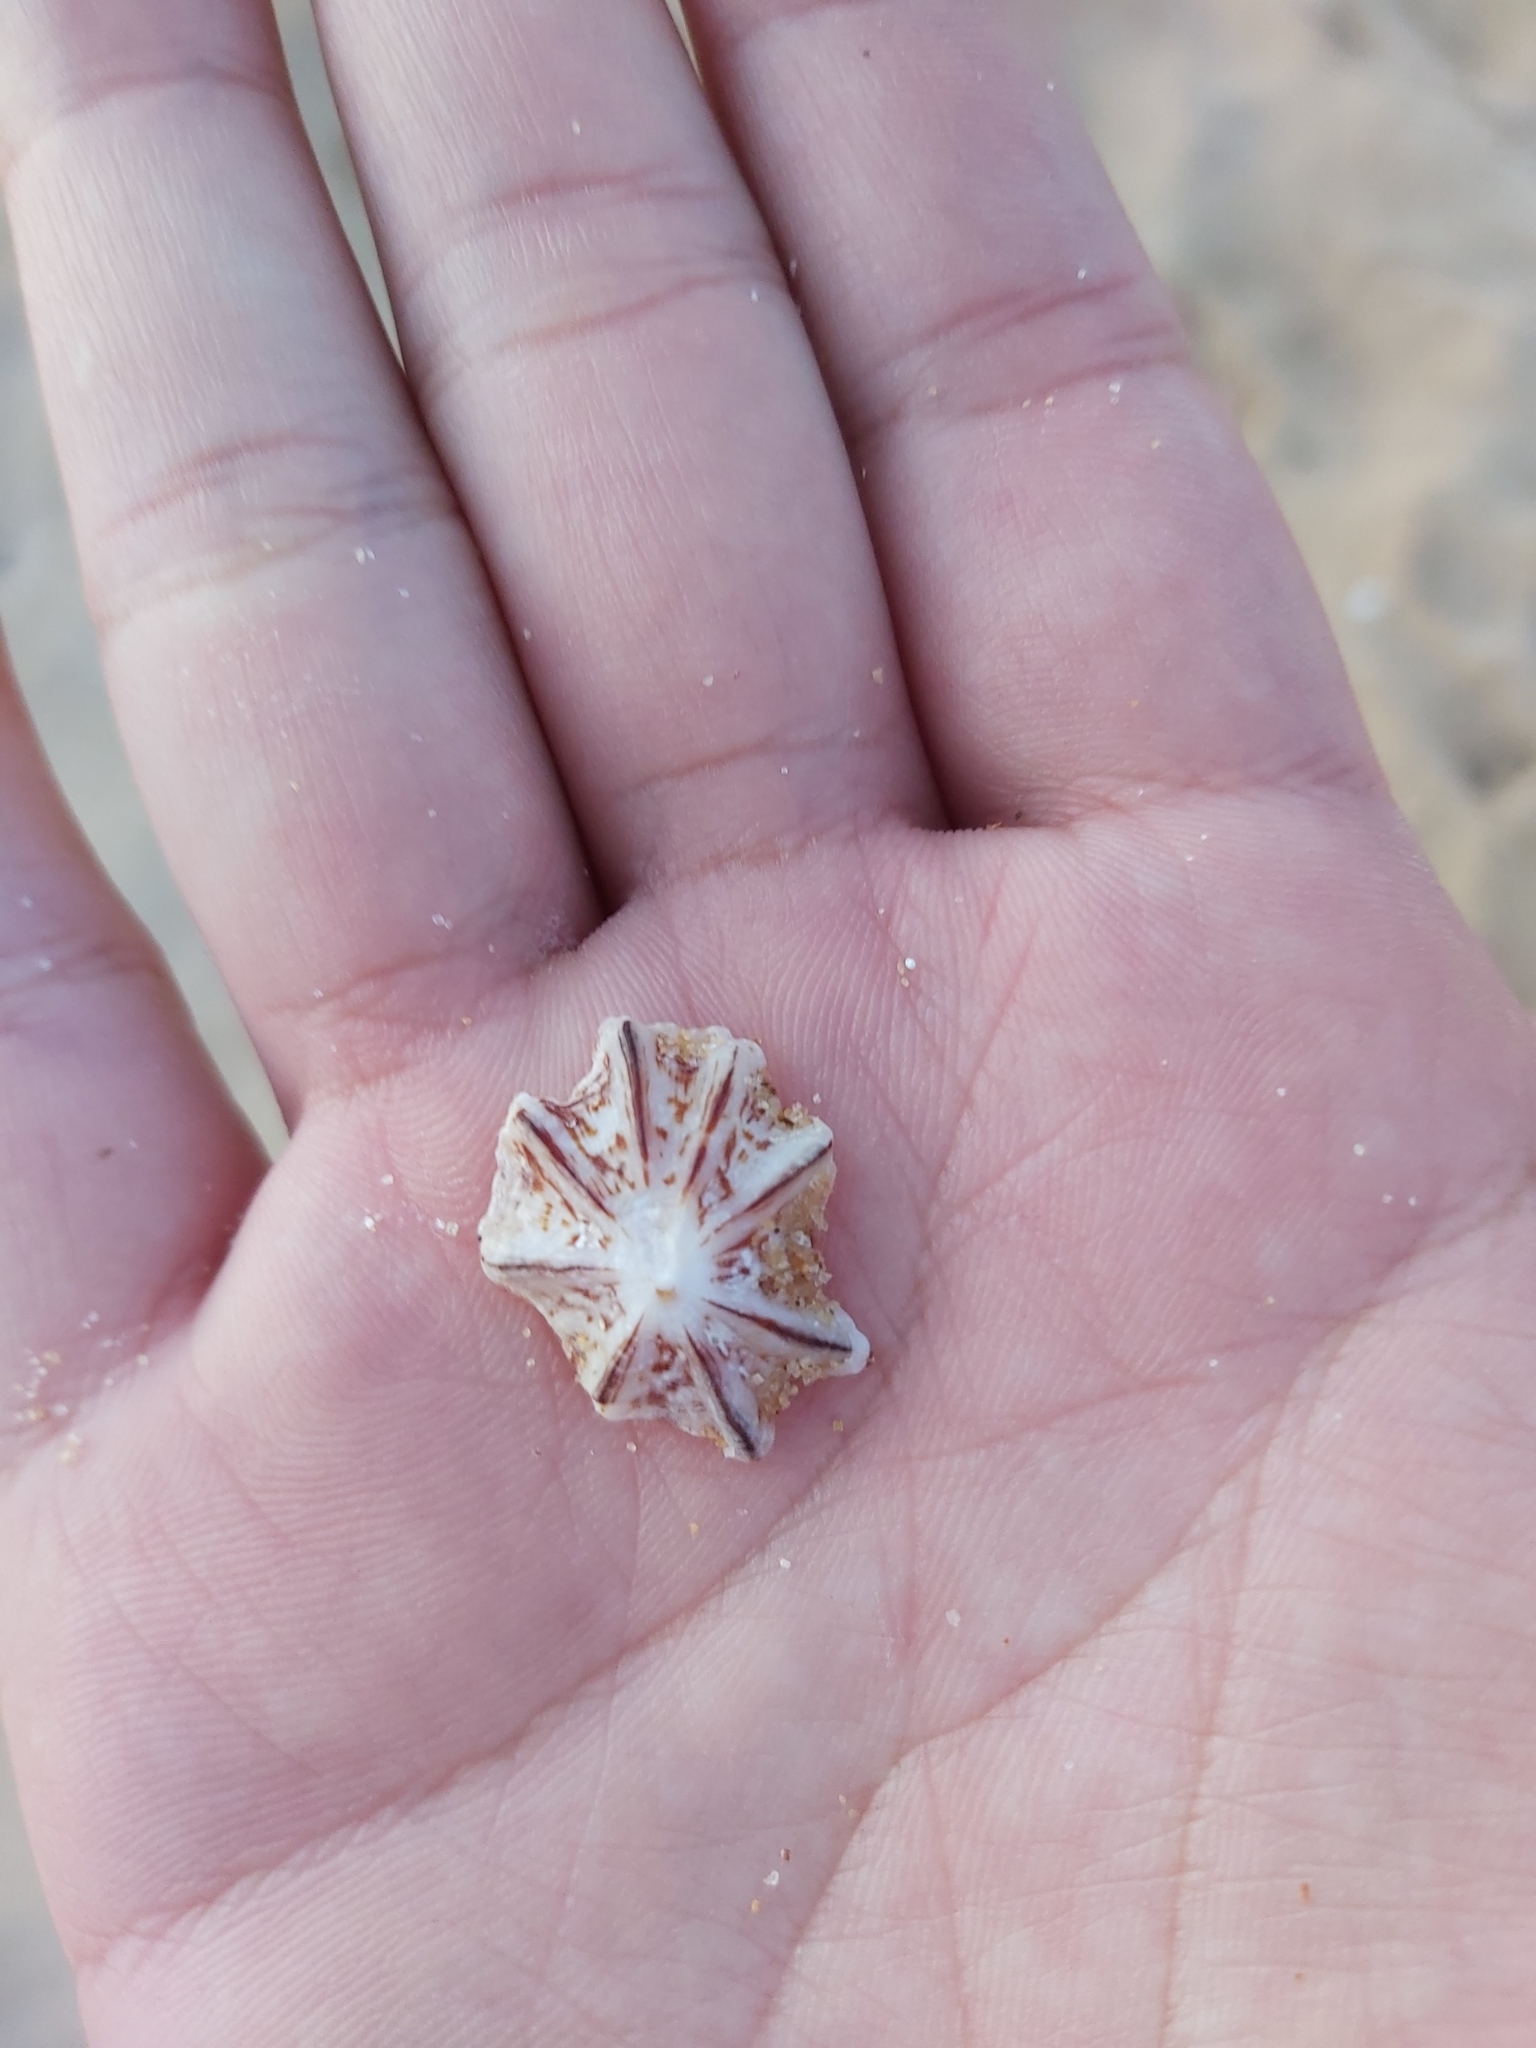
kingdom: Animalia
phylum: Mollusca
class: Gastropoda
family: Patellidae
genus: Scutellastra
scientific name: Scutellastra chapmani
